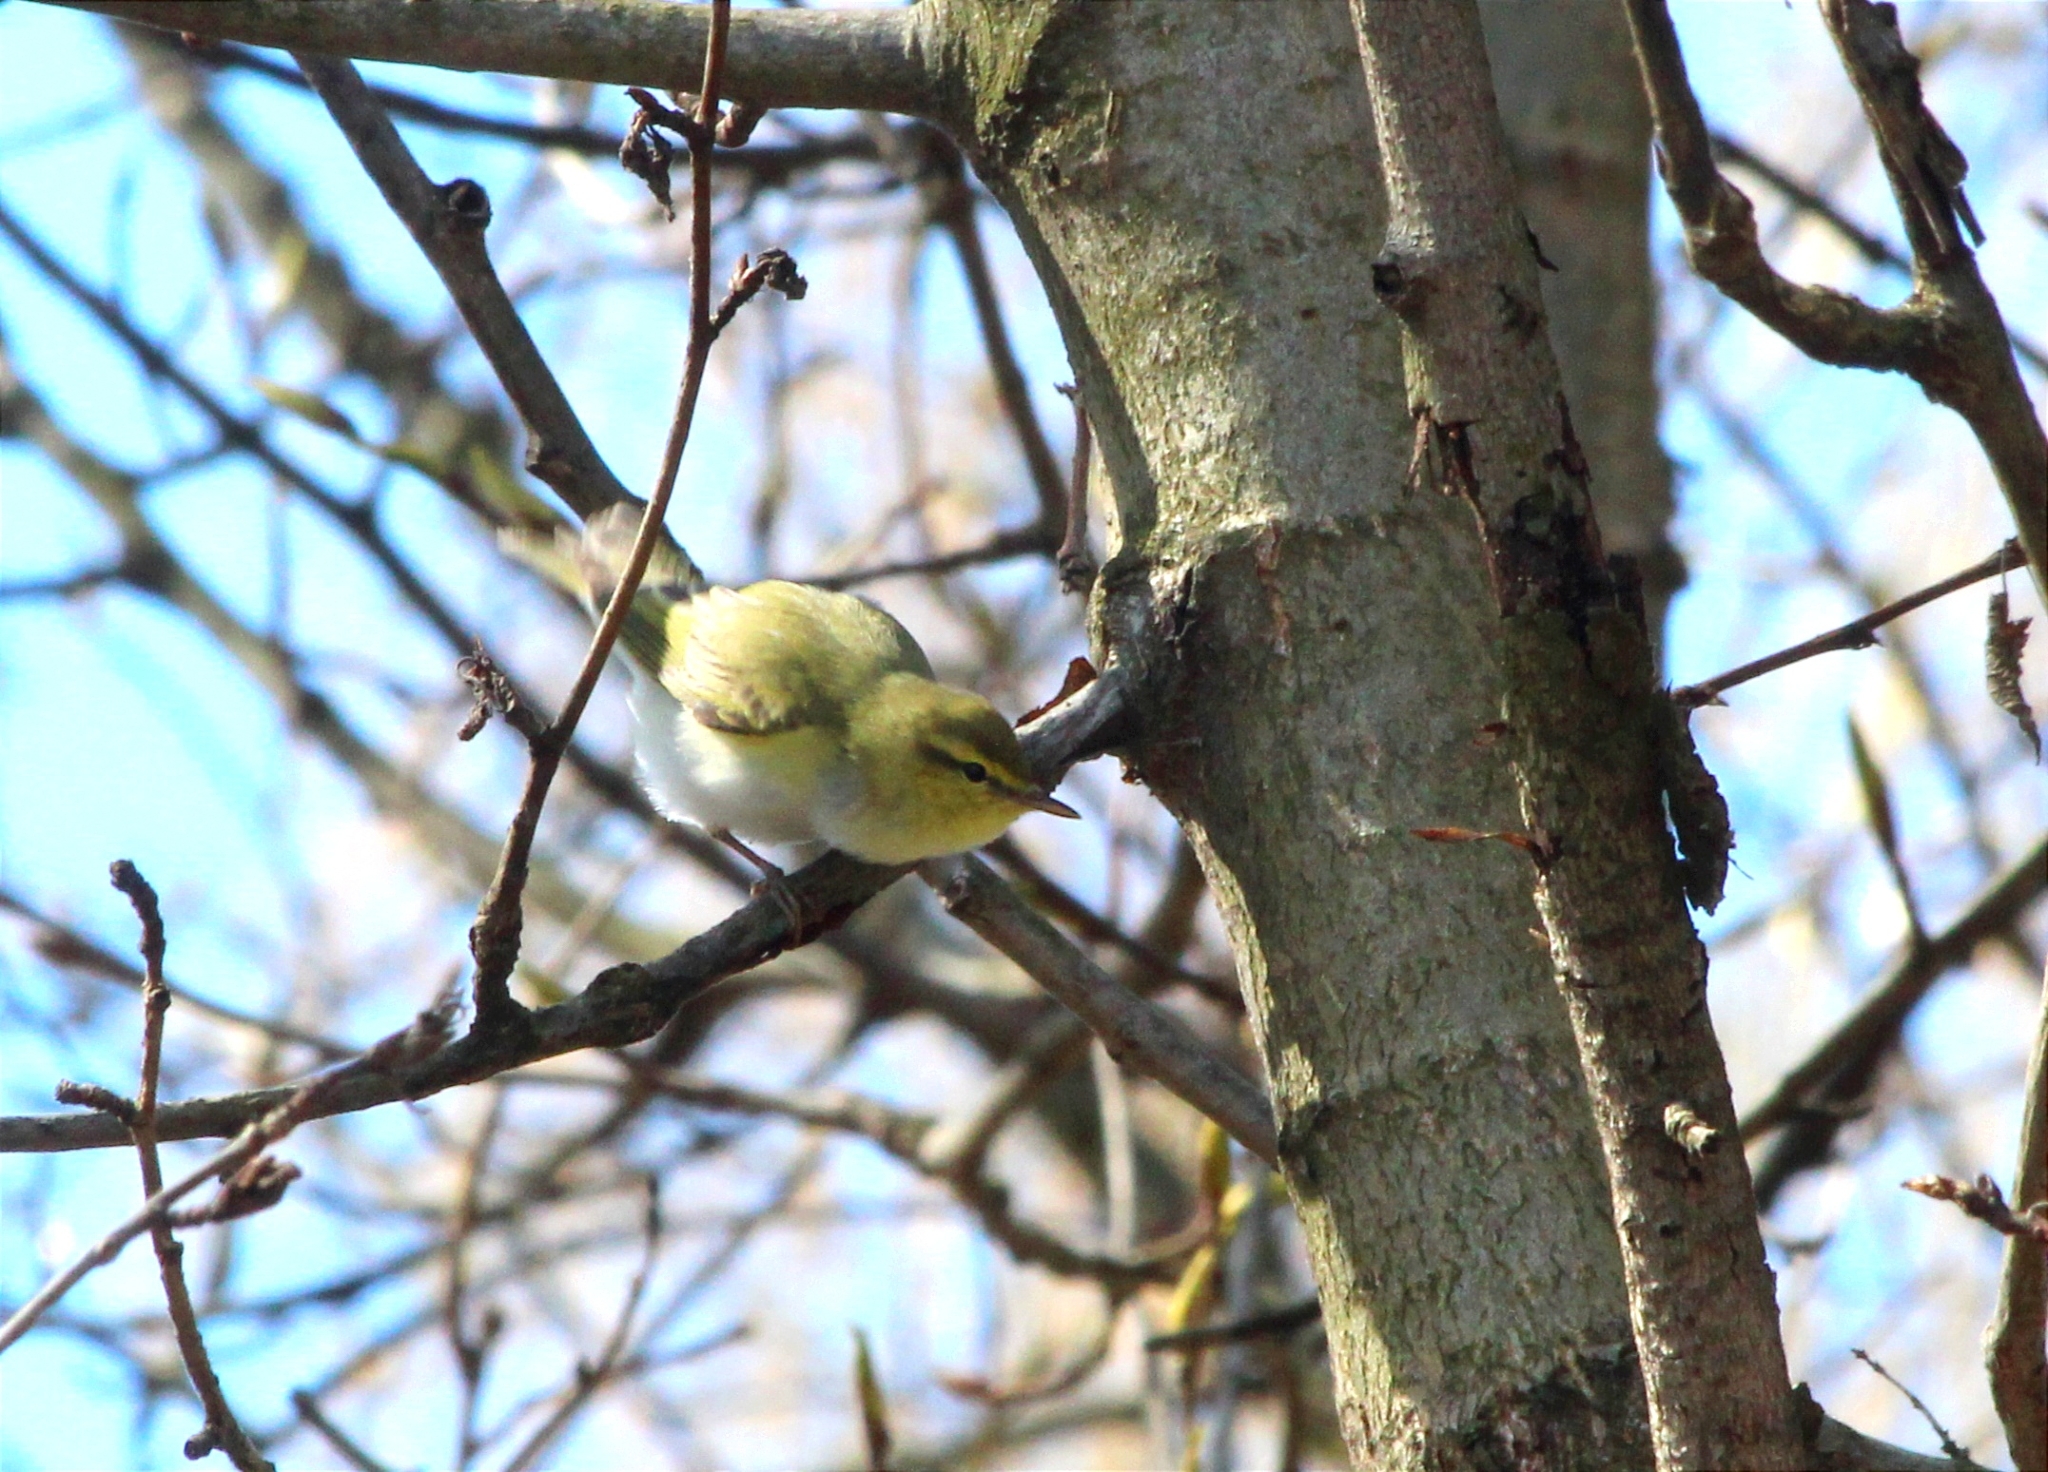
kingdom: Animalia
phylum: Chordata
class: Aves
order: Passeriformes
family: Phylloscopidae
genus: Phylloscopus
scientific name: Phylloscopus sibillatrix
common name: Wood warbler
